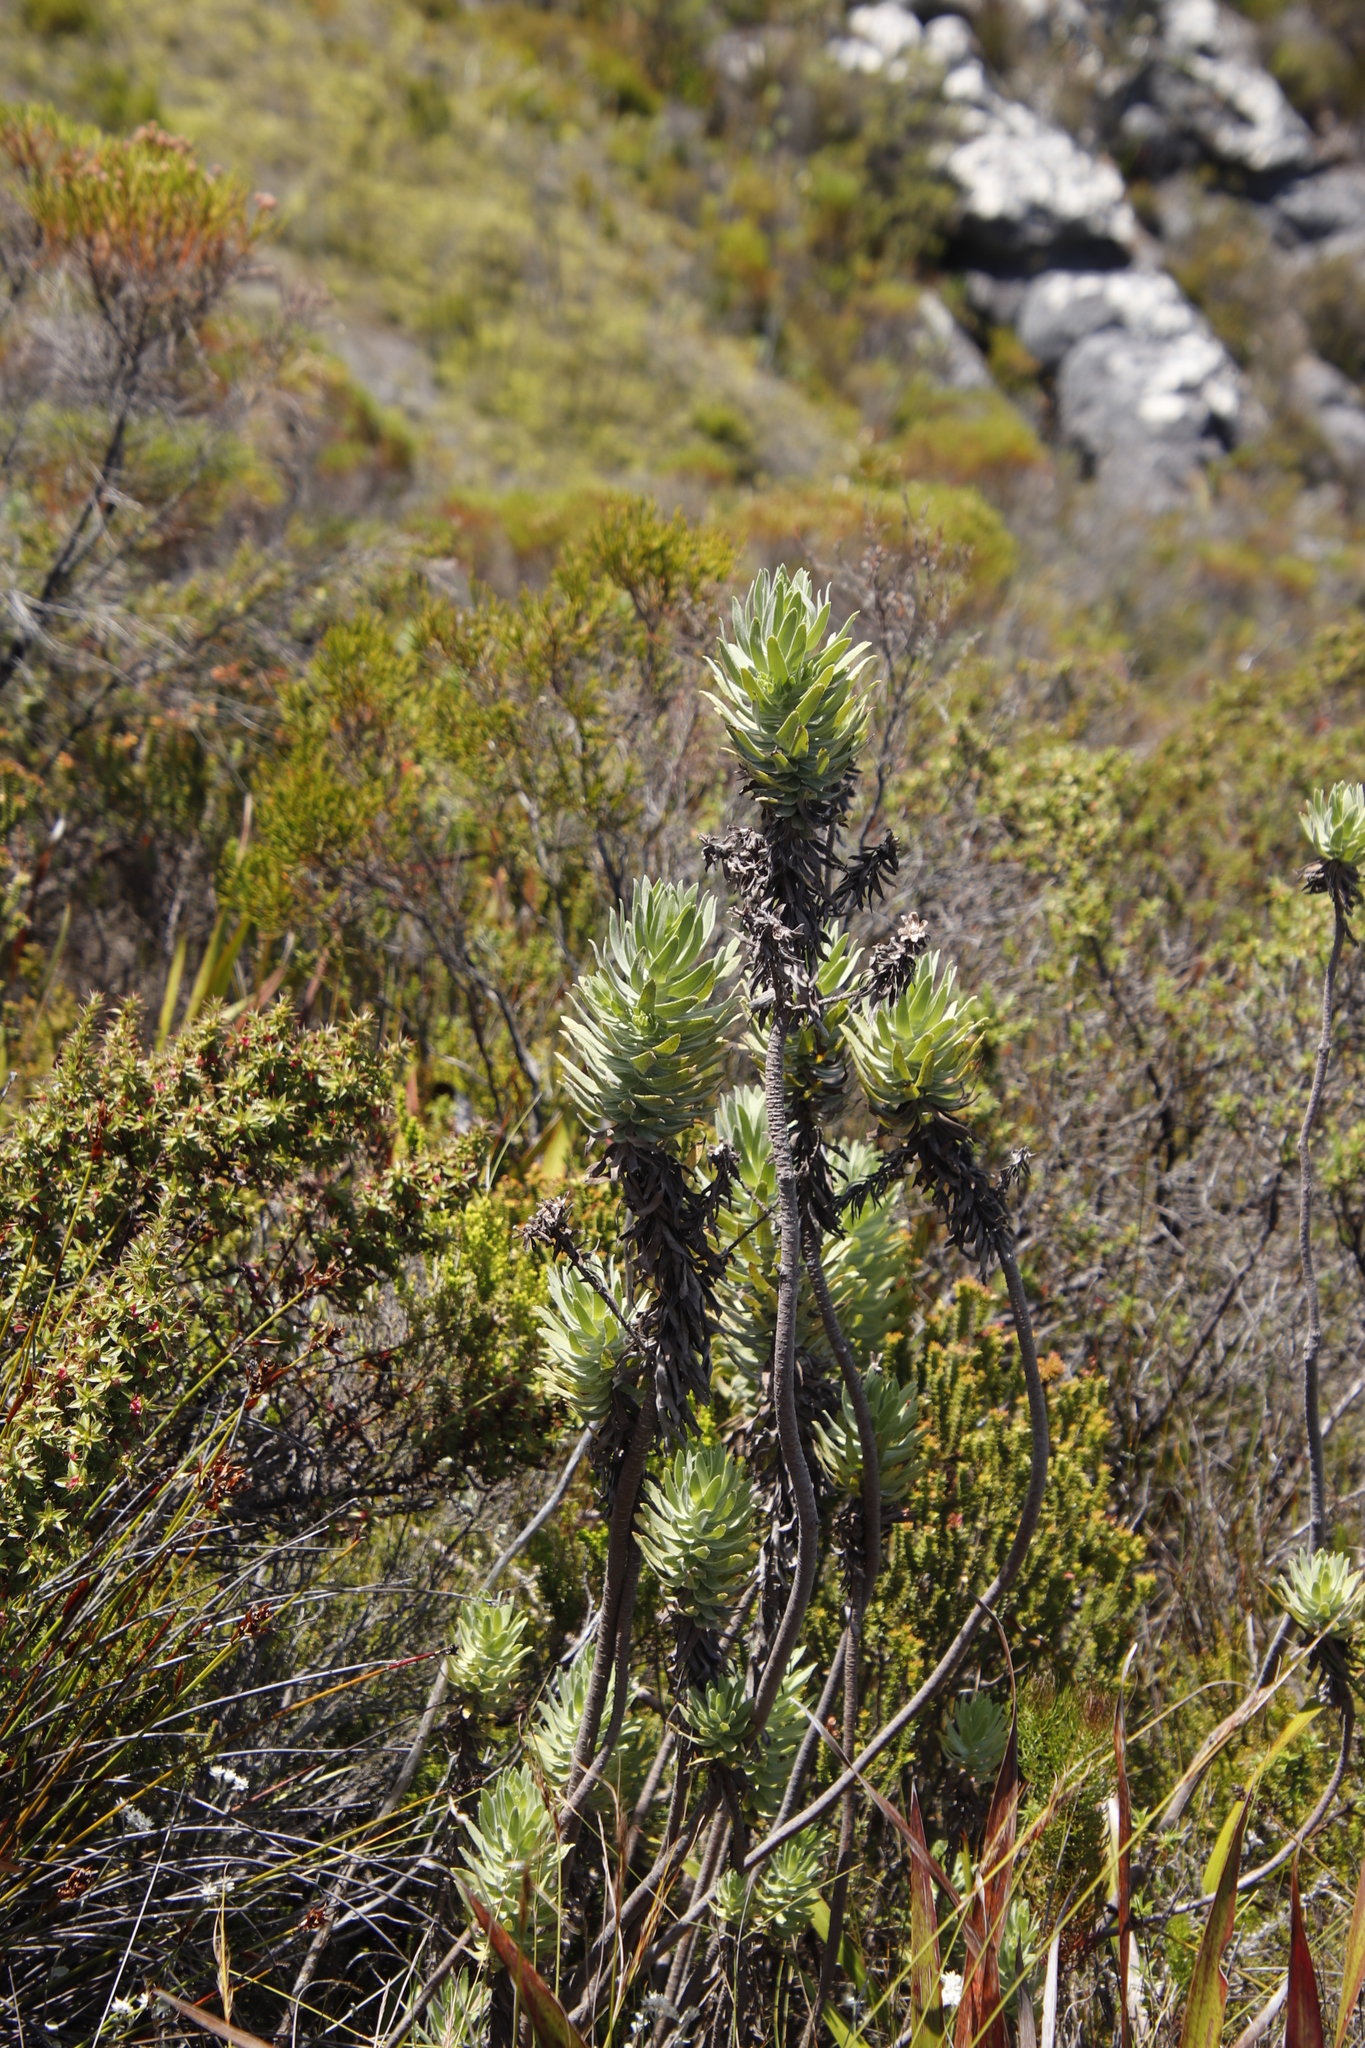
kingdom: Plantae
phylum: Tracheophyta
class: Magnoliopsida
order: Asterales
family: Asteraceae
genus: Osmitopsis
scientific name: Osmitopsis asteriscoides
